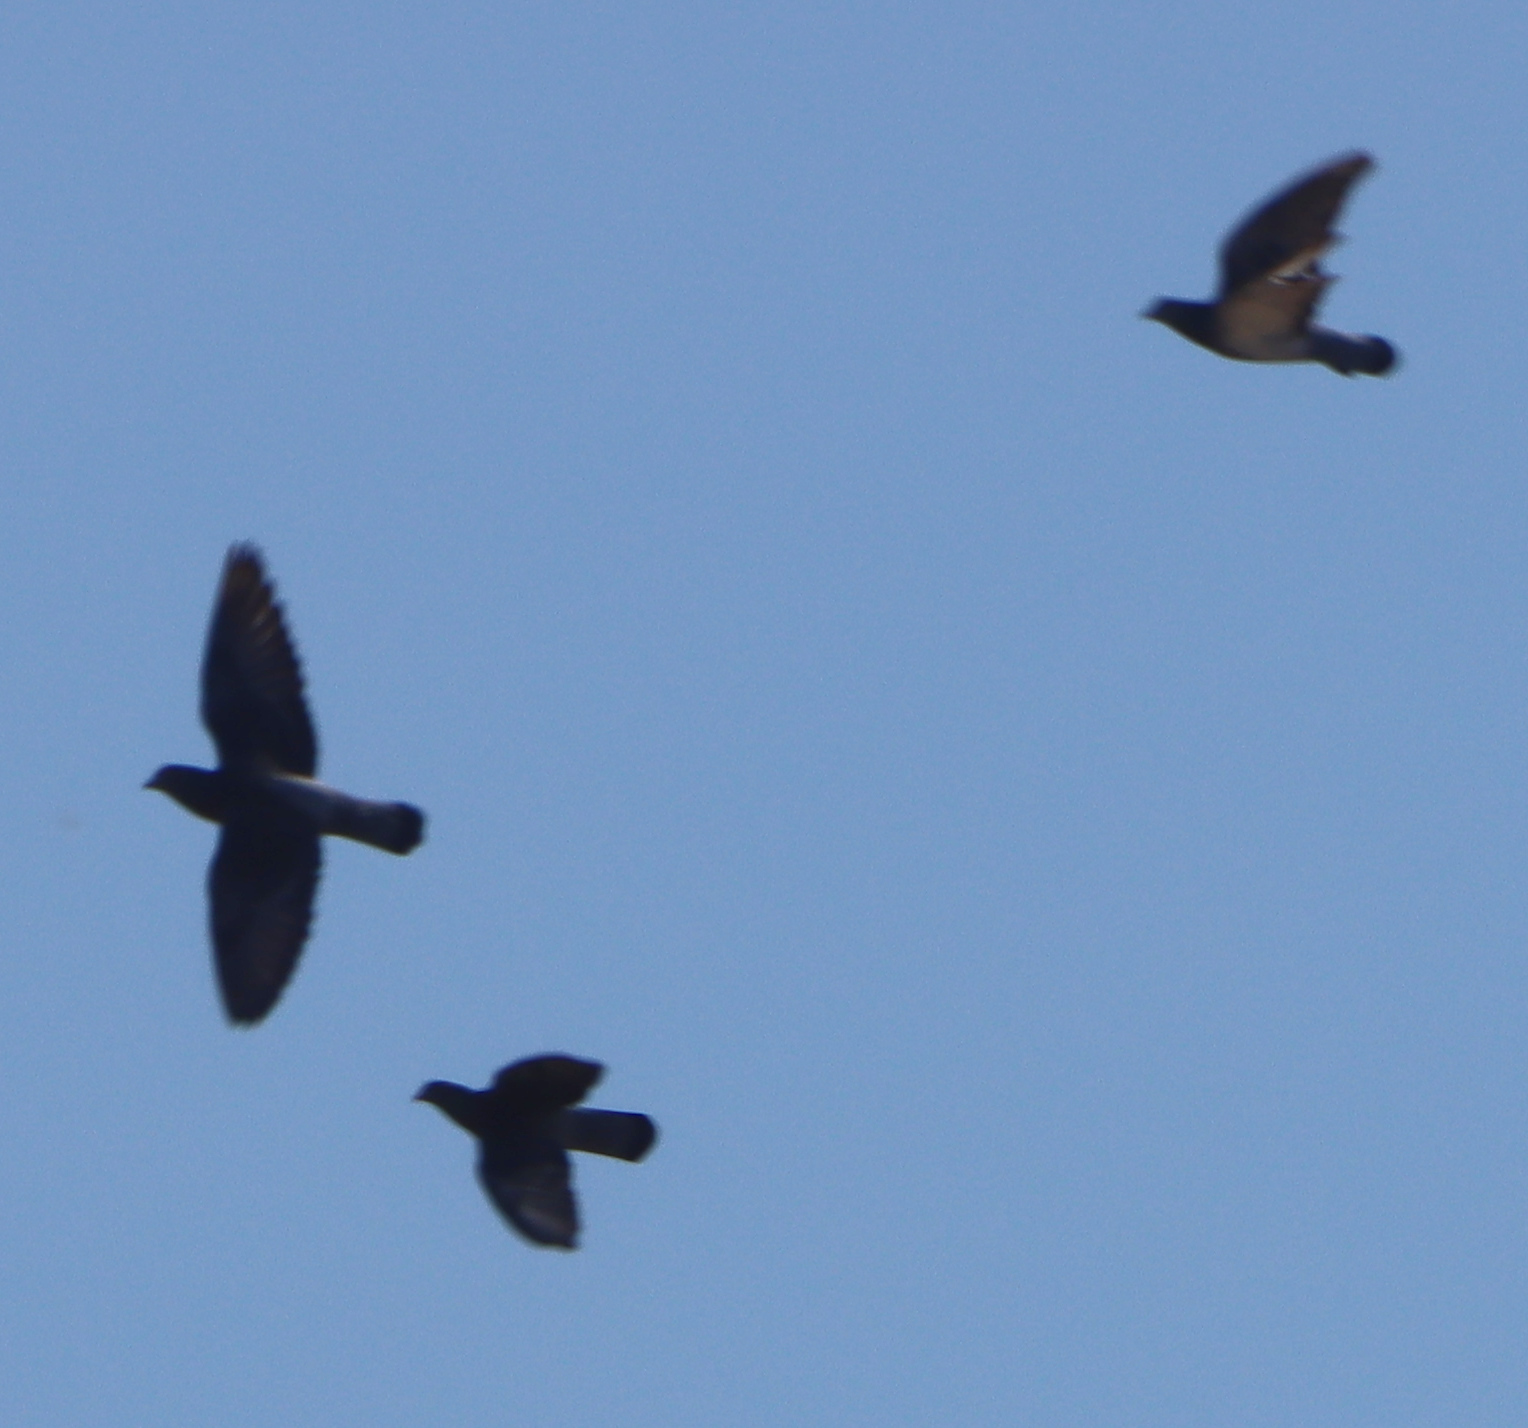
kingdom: Animalia
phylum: Chordata
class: Aves
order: Columbiformes
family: Columbidae
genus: Columba
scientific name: Columba livia
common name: Rock pigeon
